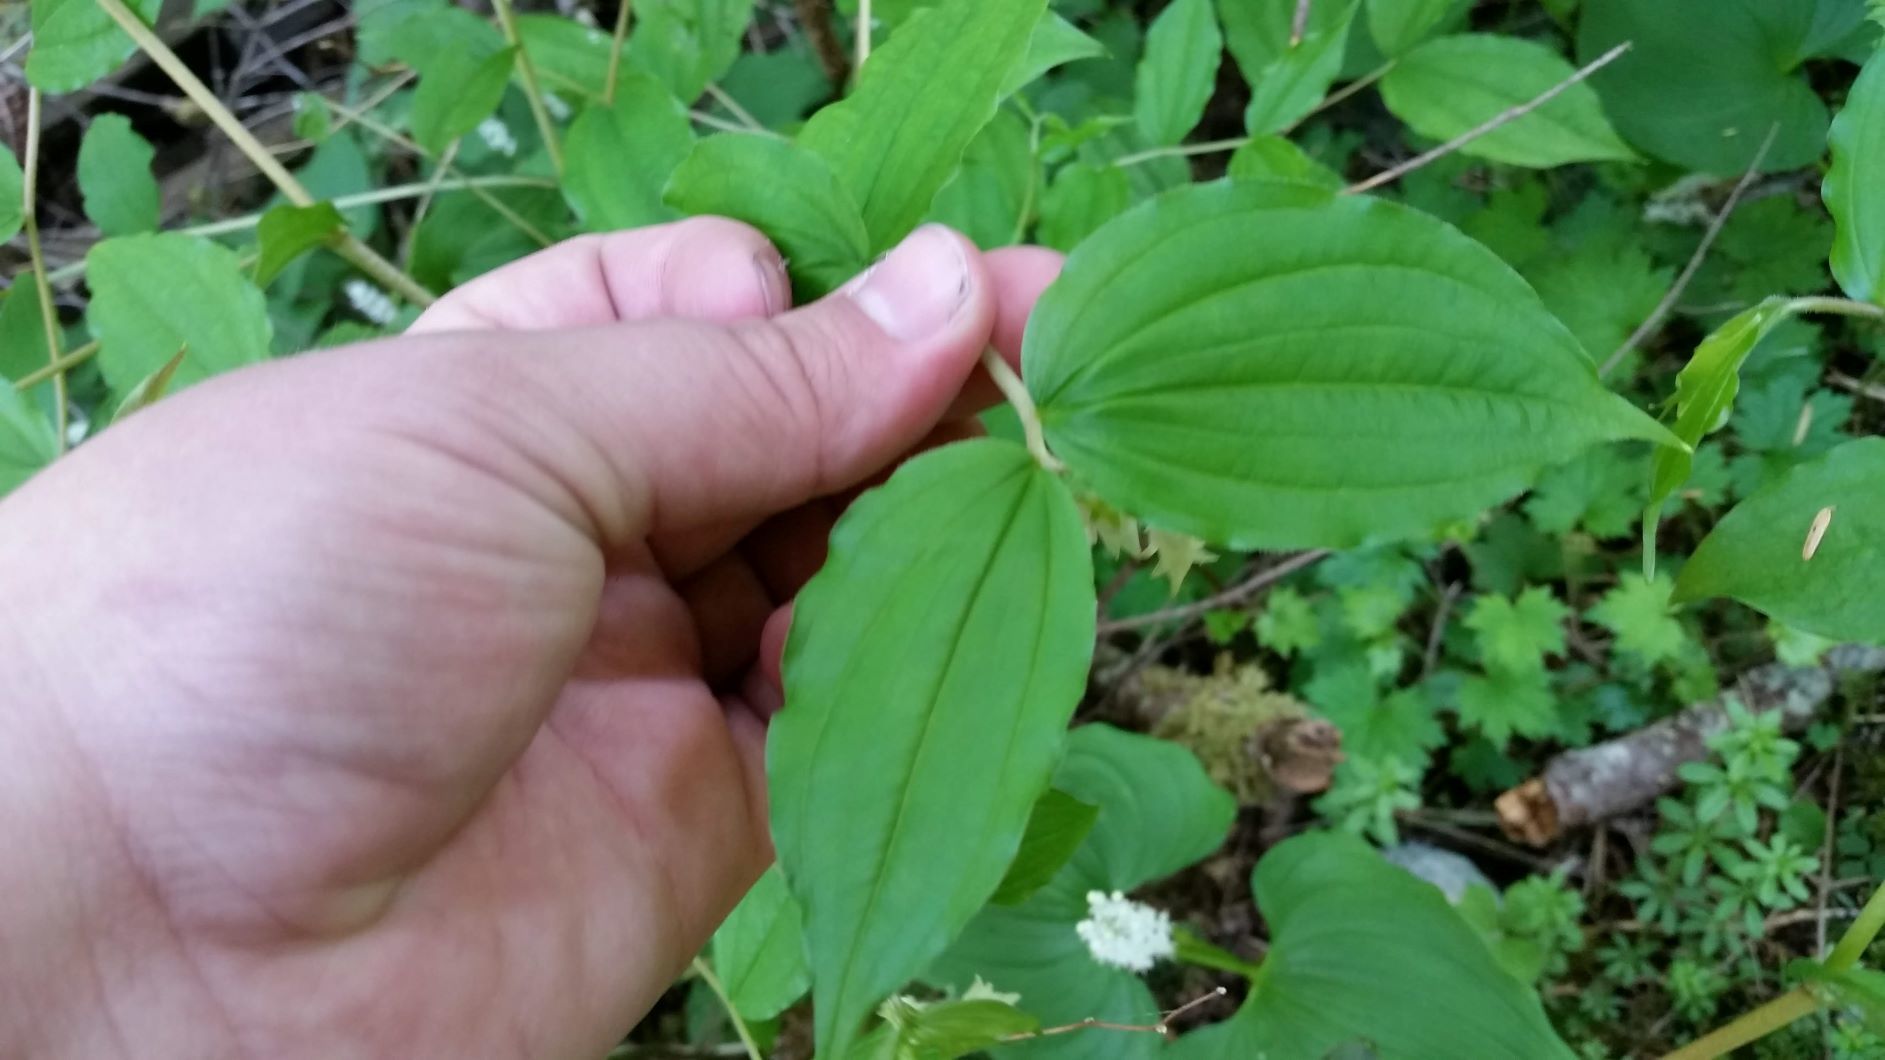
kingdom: Plantae
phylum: Tracheophyta
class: Liliopsida
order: Liliales
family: Liliaceae
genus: Prosartes
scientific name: Prosartes smithii
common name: Fairy-lantern
